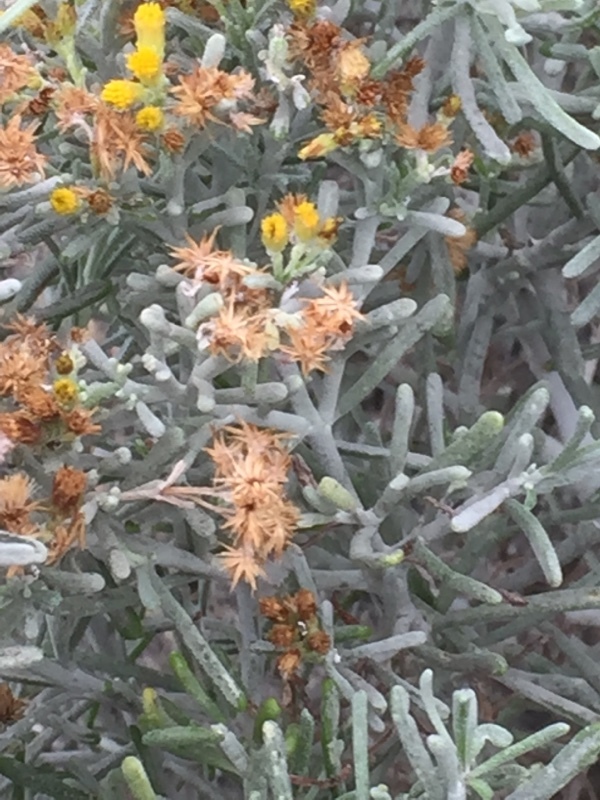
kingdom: Plantae
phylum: Tracheophyta
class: Magnoliopsida
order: Asterales
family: Asteraceae
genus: Schizogyne
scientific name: Schizogyne sericea
